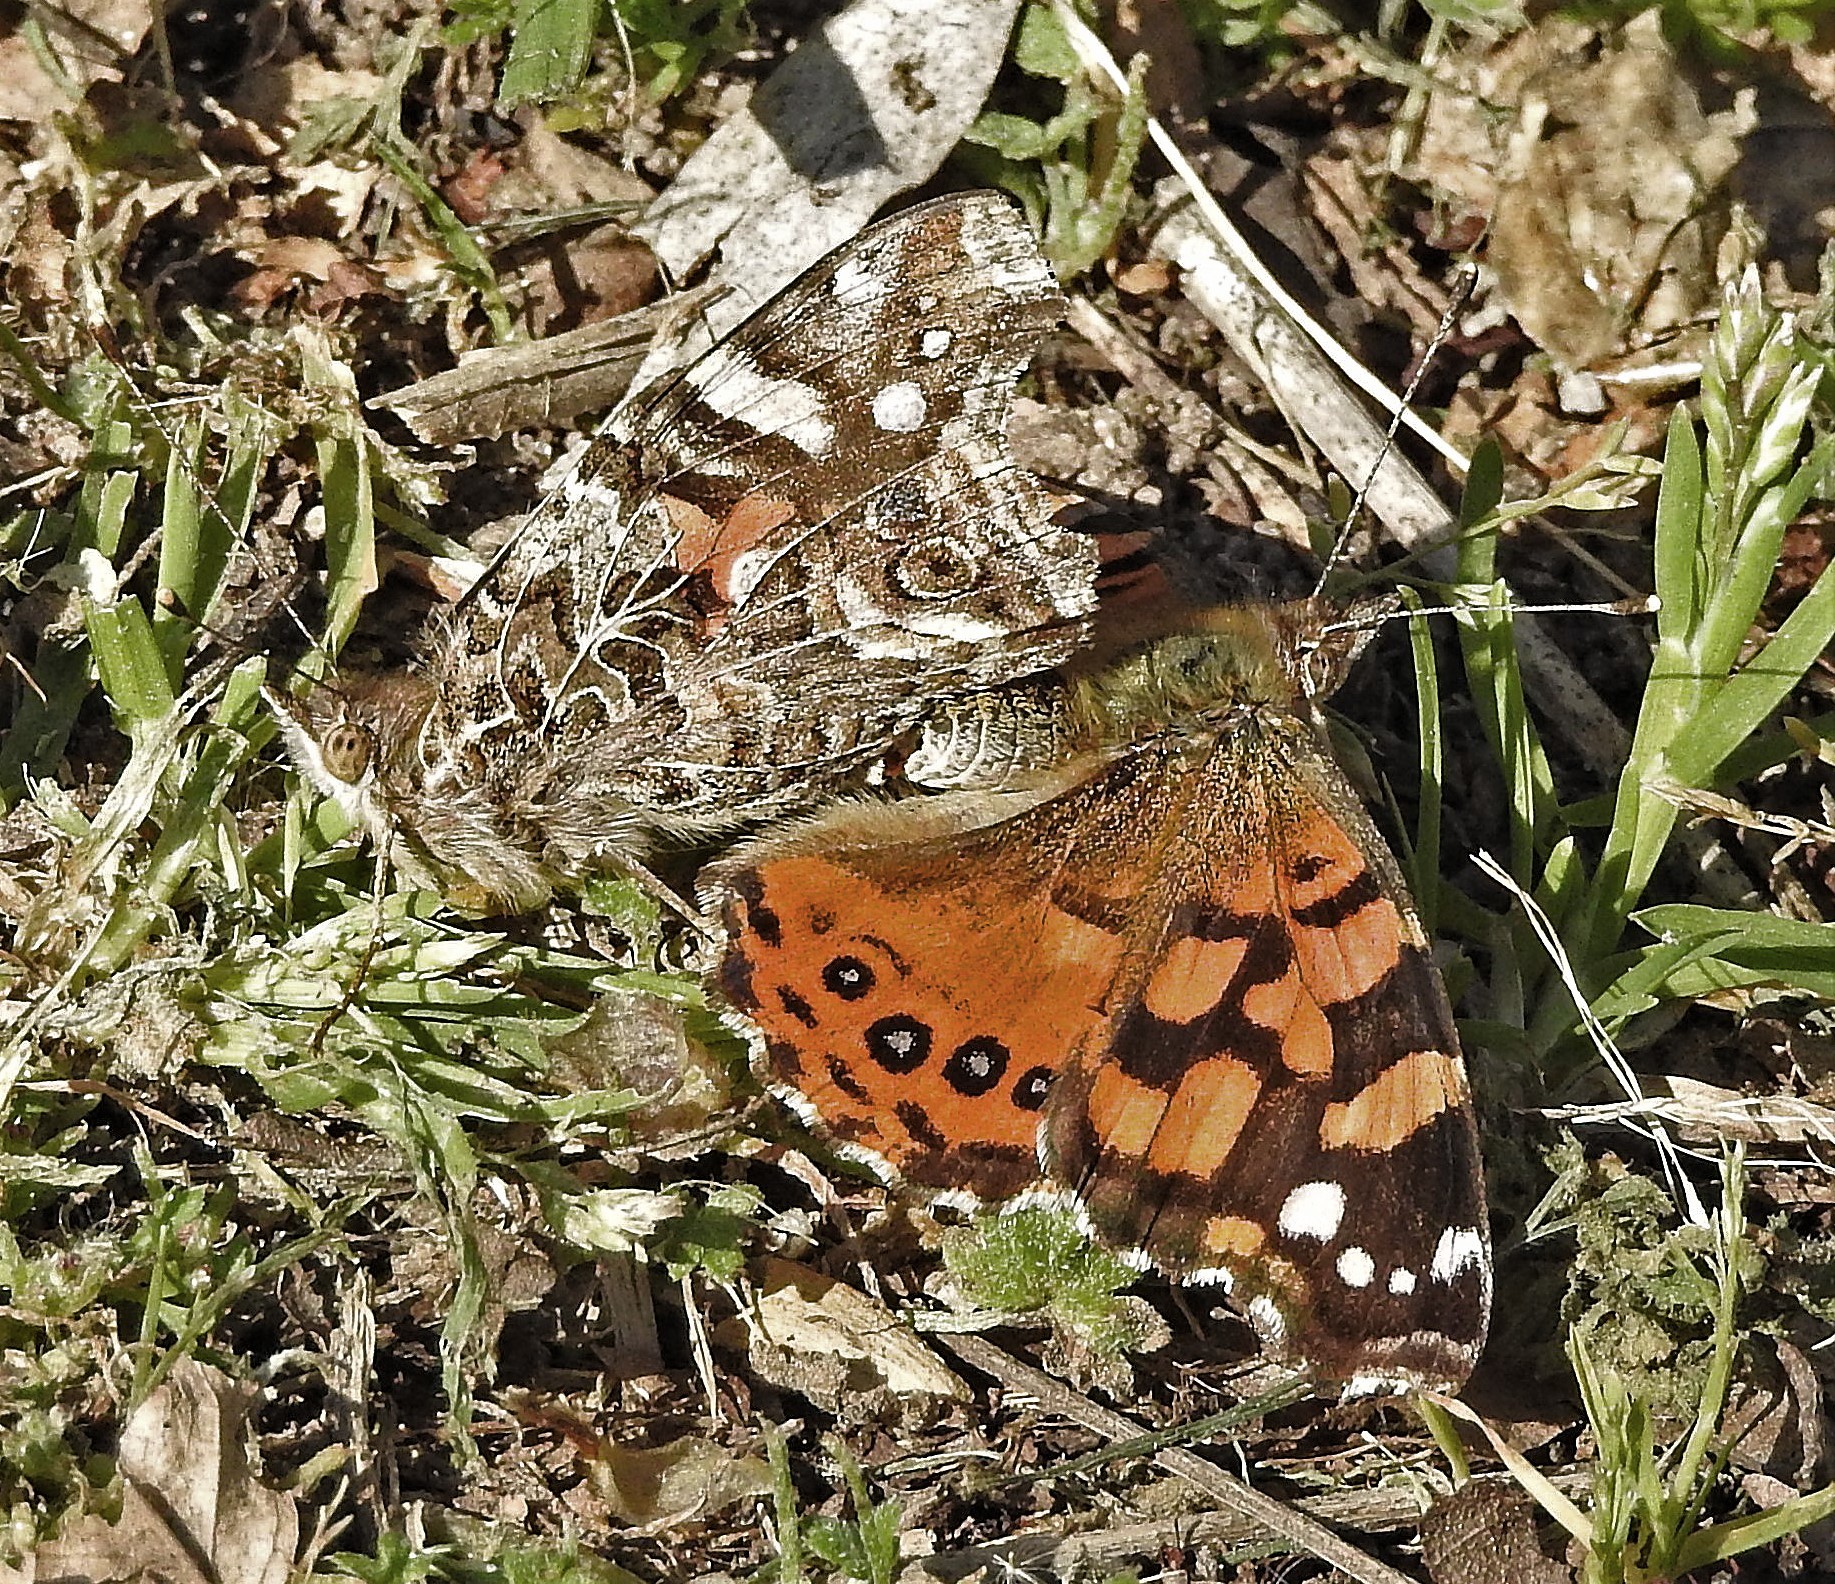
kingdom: Animalia
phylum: Arthropoda
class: Insecta
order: Lepidoptera
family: Nymphalidae
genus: Vanessa
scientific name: Vanessa carye
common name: Subtropical lady
